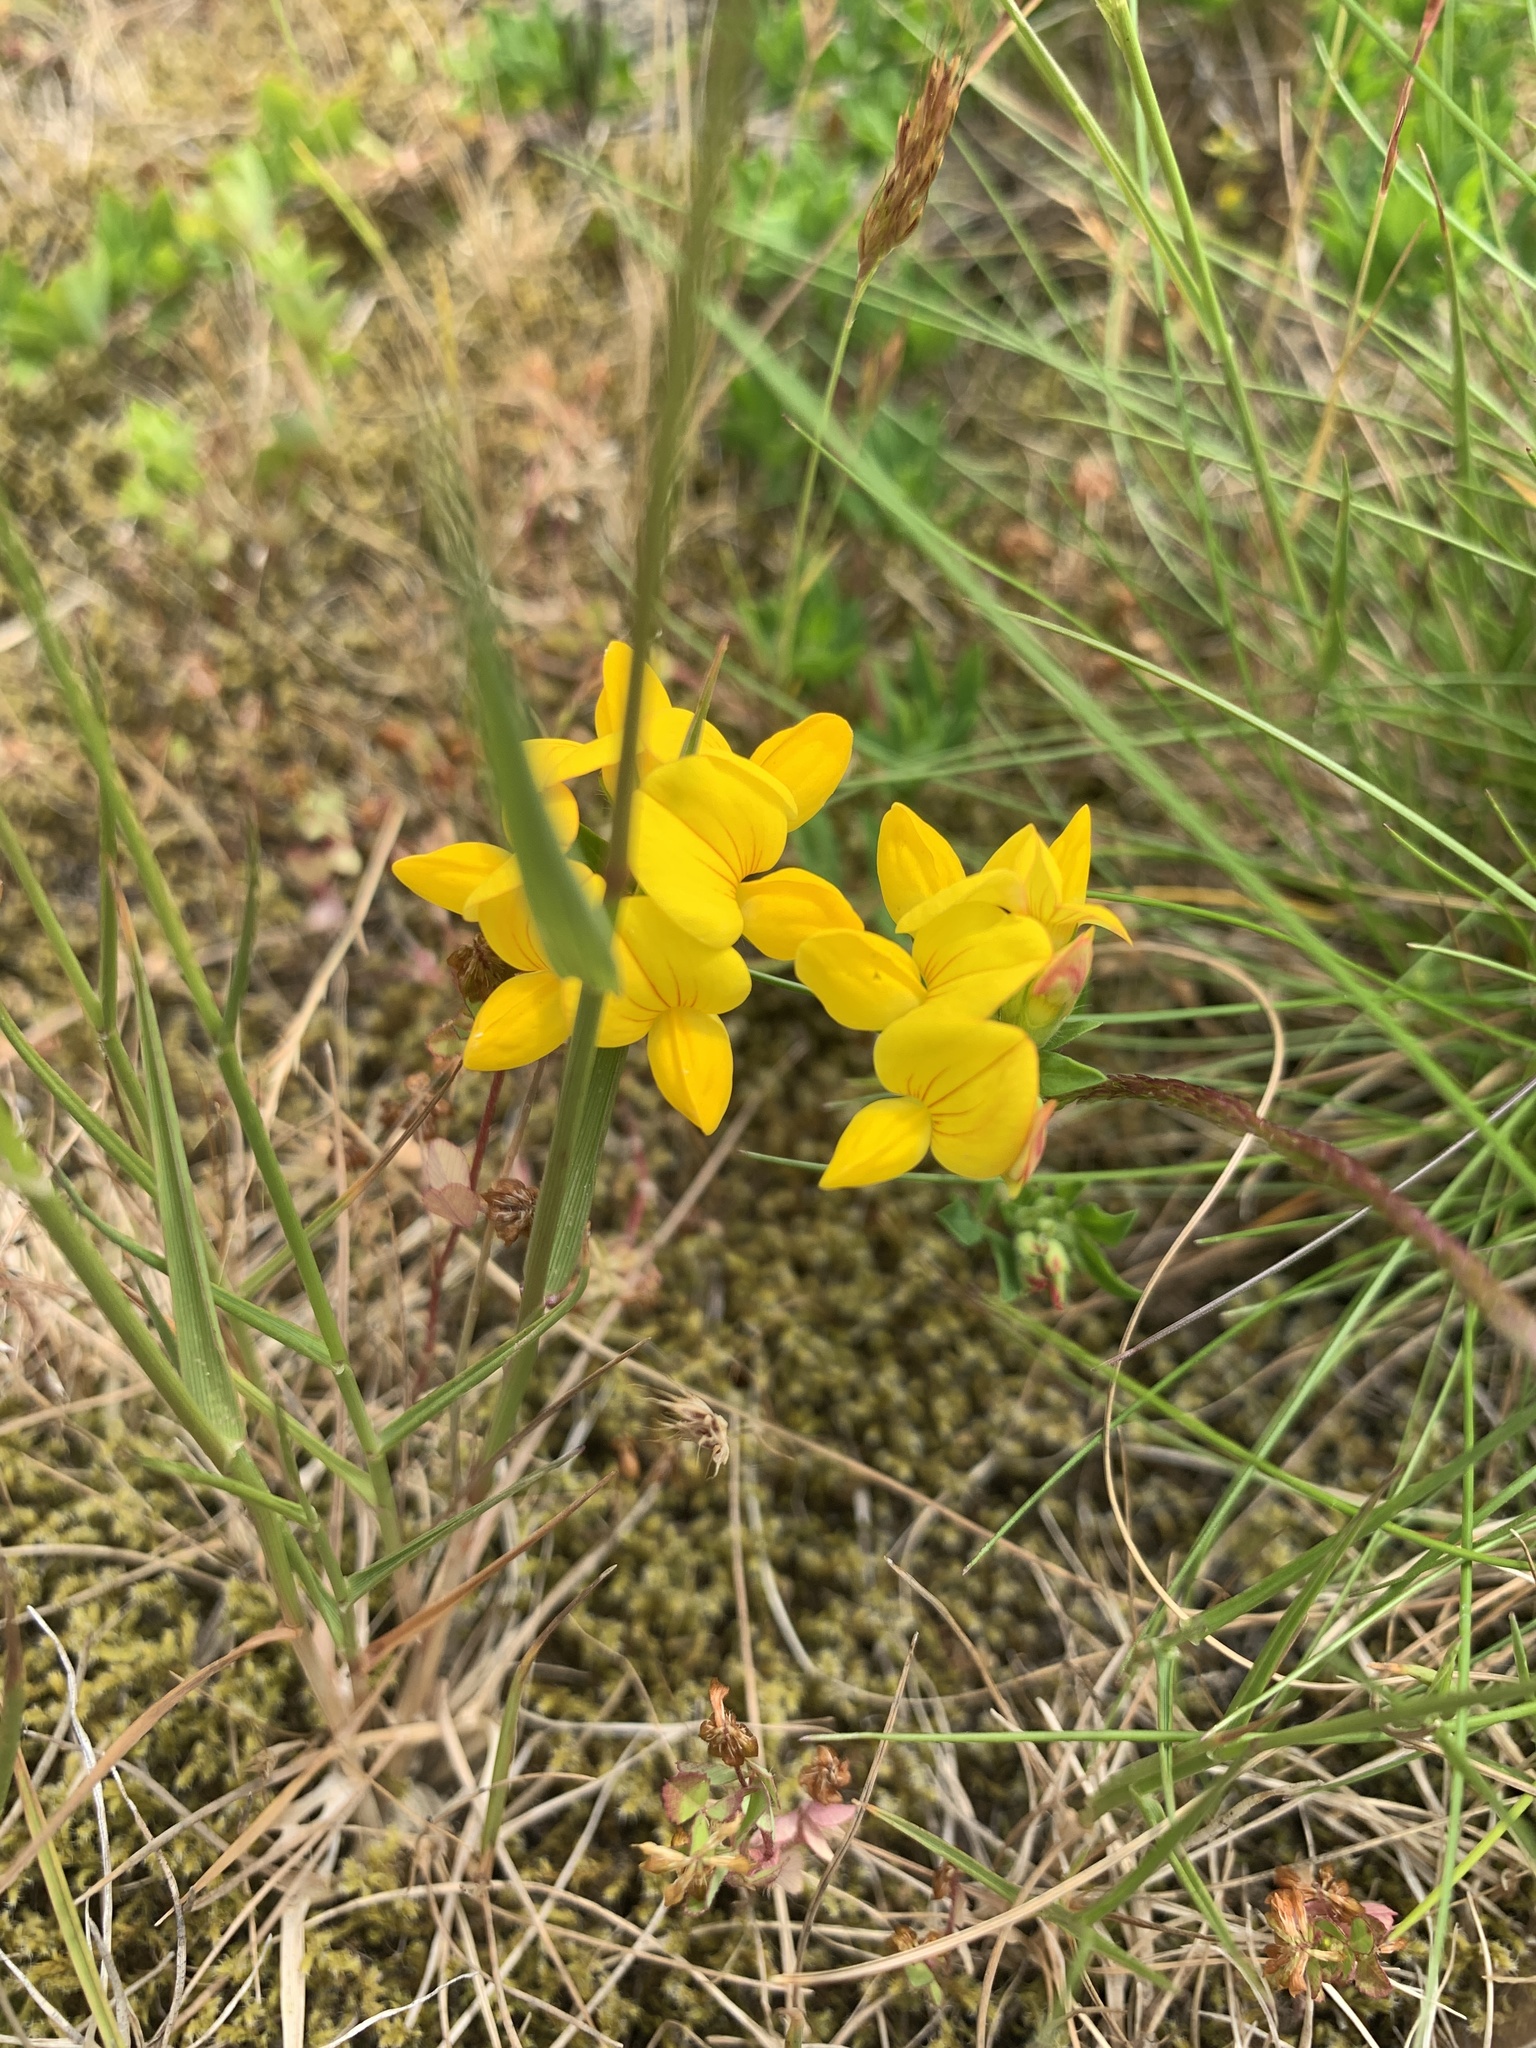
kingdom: Plantae
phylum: Tracheophyta
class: Magnoliopsida
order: Fabales
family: Fabaceae
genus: Lotus
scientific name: Lotus corniculatus
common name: Common bird's-foot-trefoil
